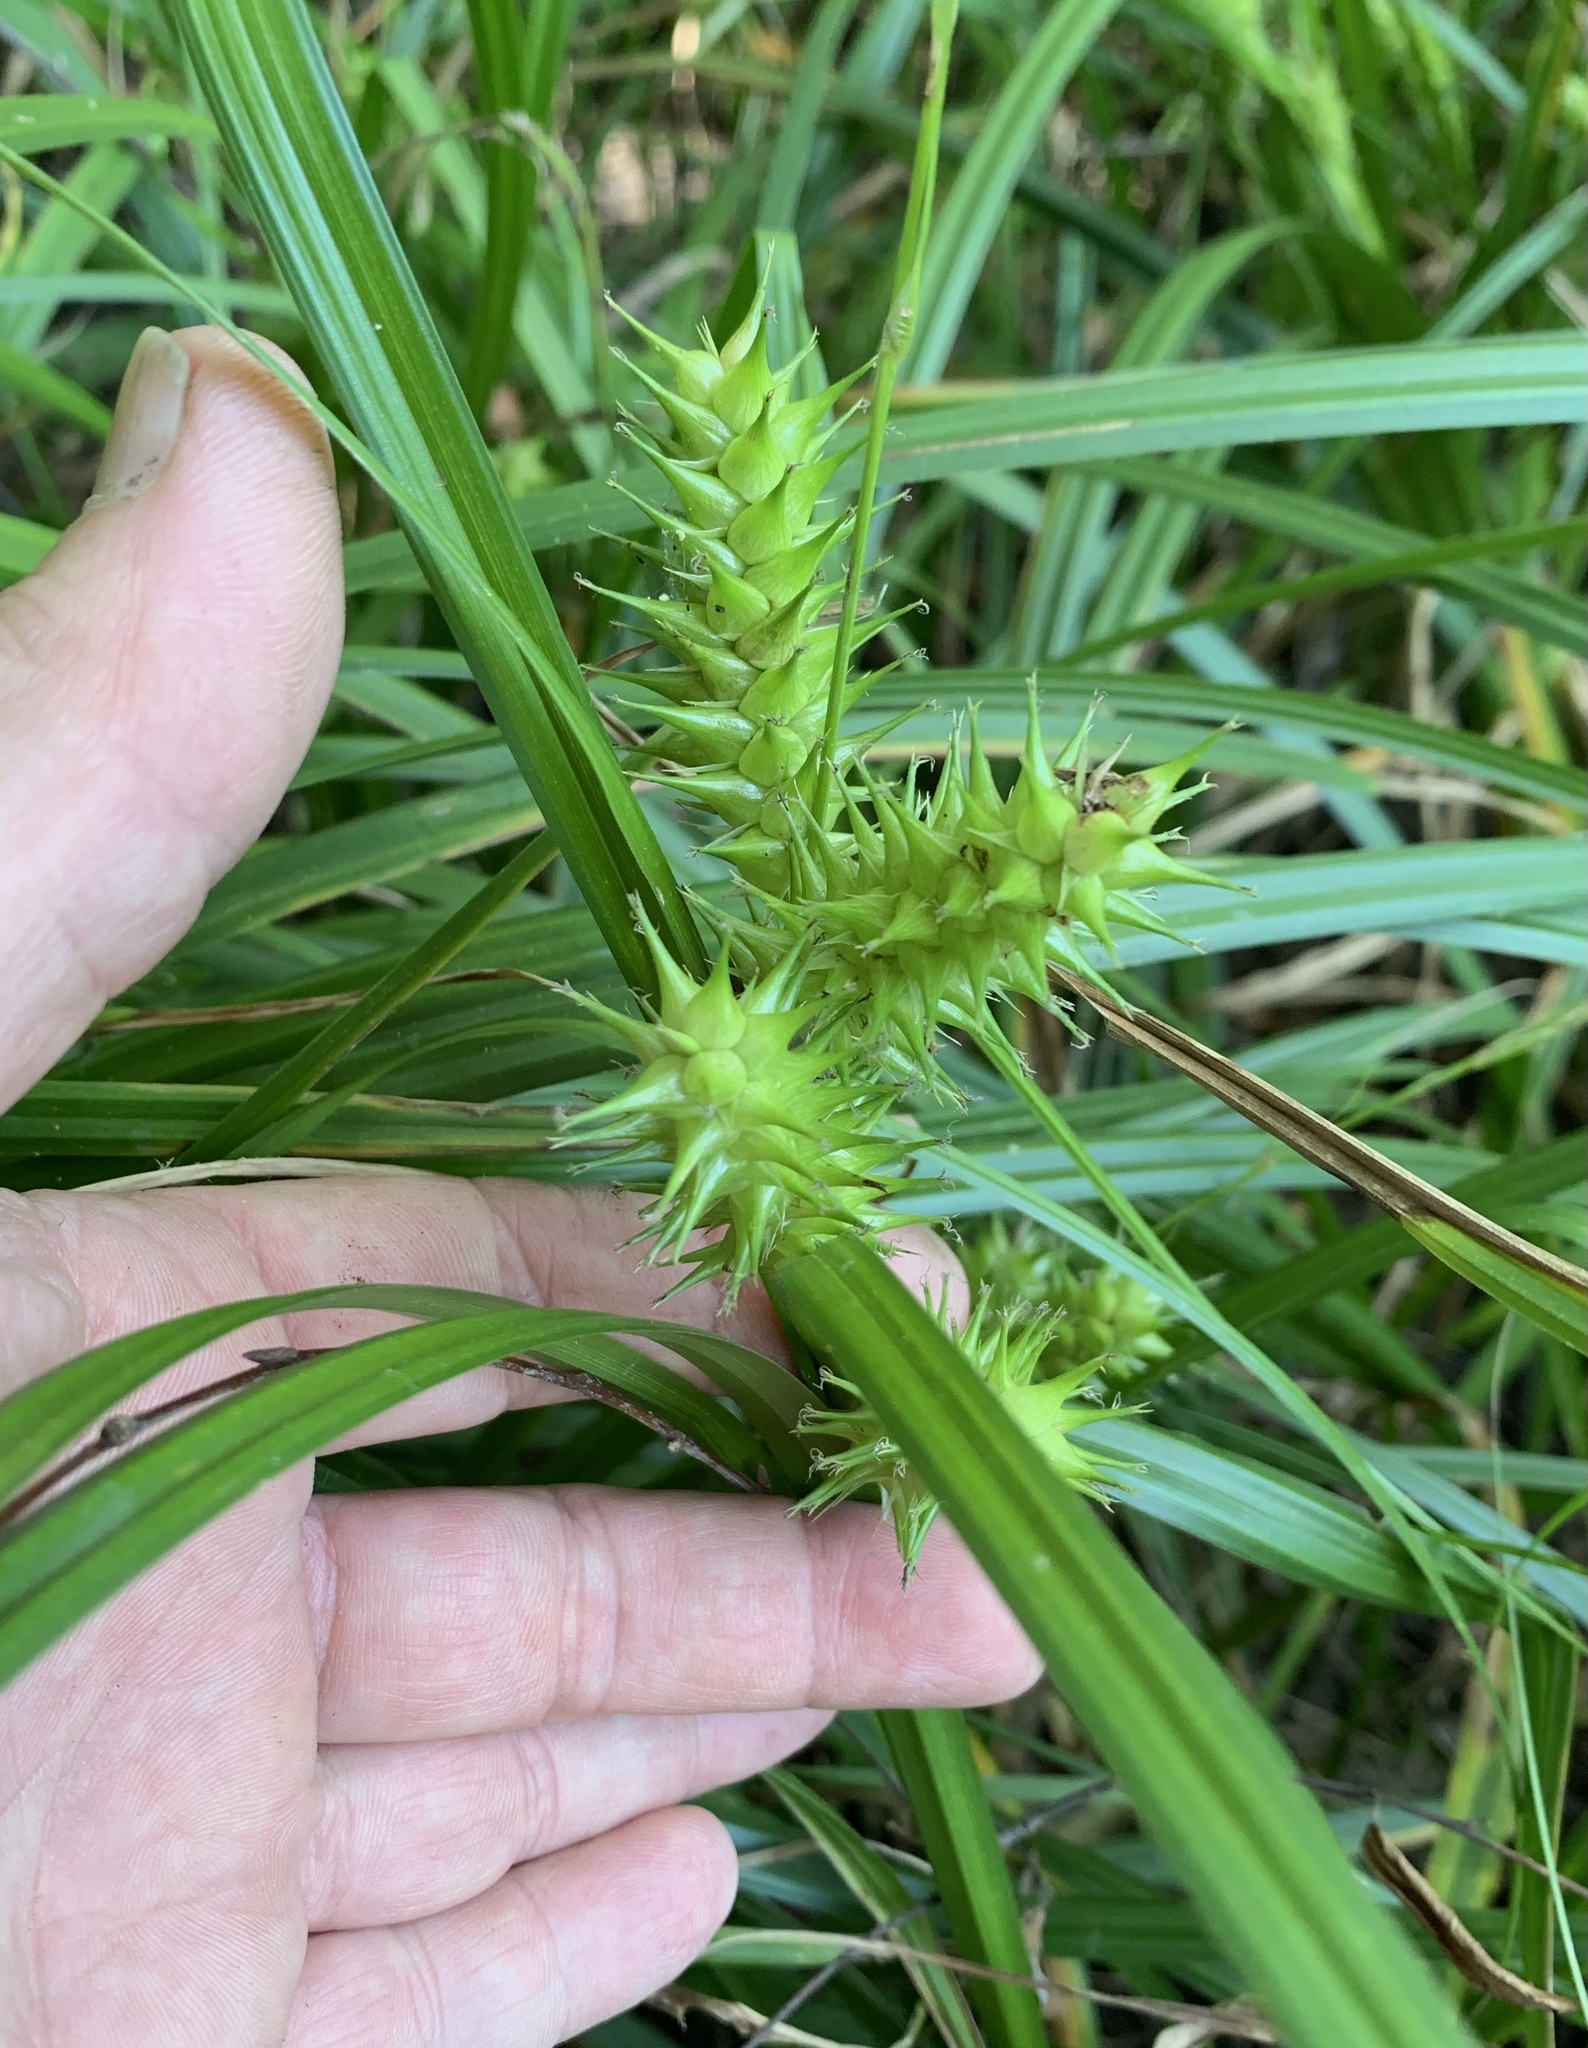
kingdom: Plantae
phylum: Tracheophyta
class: Liliopsida
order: Poales
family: Cyperaceae
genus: Carex
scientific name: Carex lupuliformis
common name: False hop sedge
